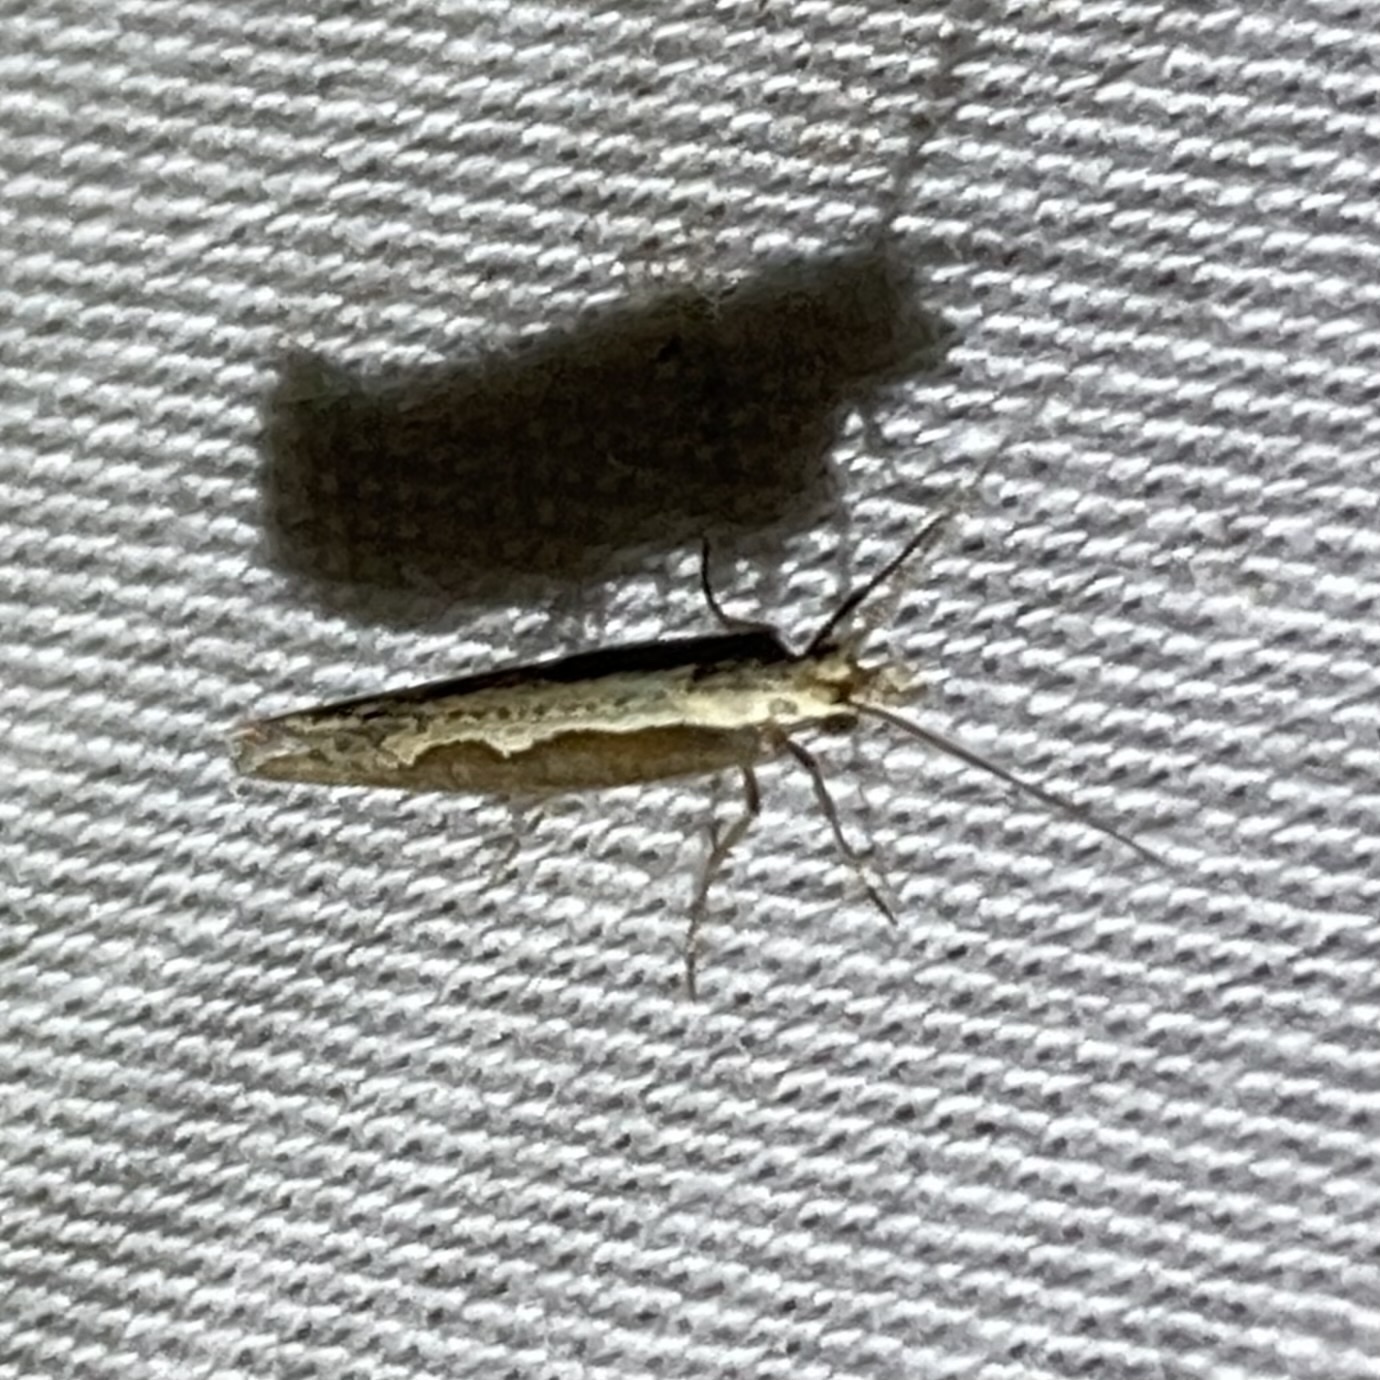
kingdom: Animalia
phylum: Arthropoda
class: Insecta
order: Lepidoptera
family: Plutellidae
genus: Plutella
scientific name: Plutella xylostella
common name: Diamond-back moth
